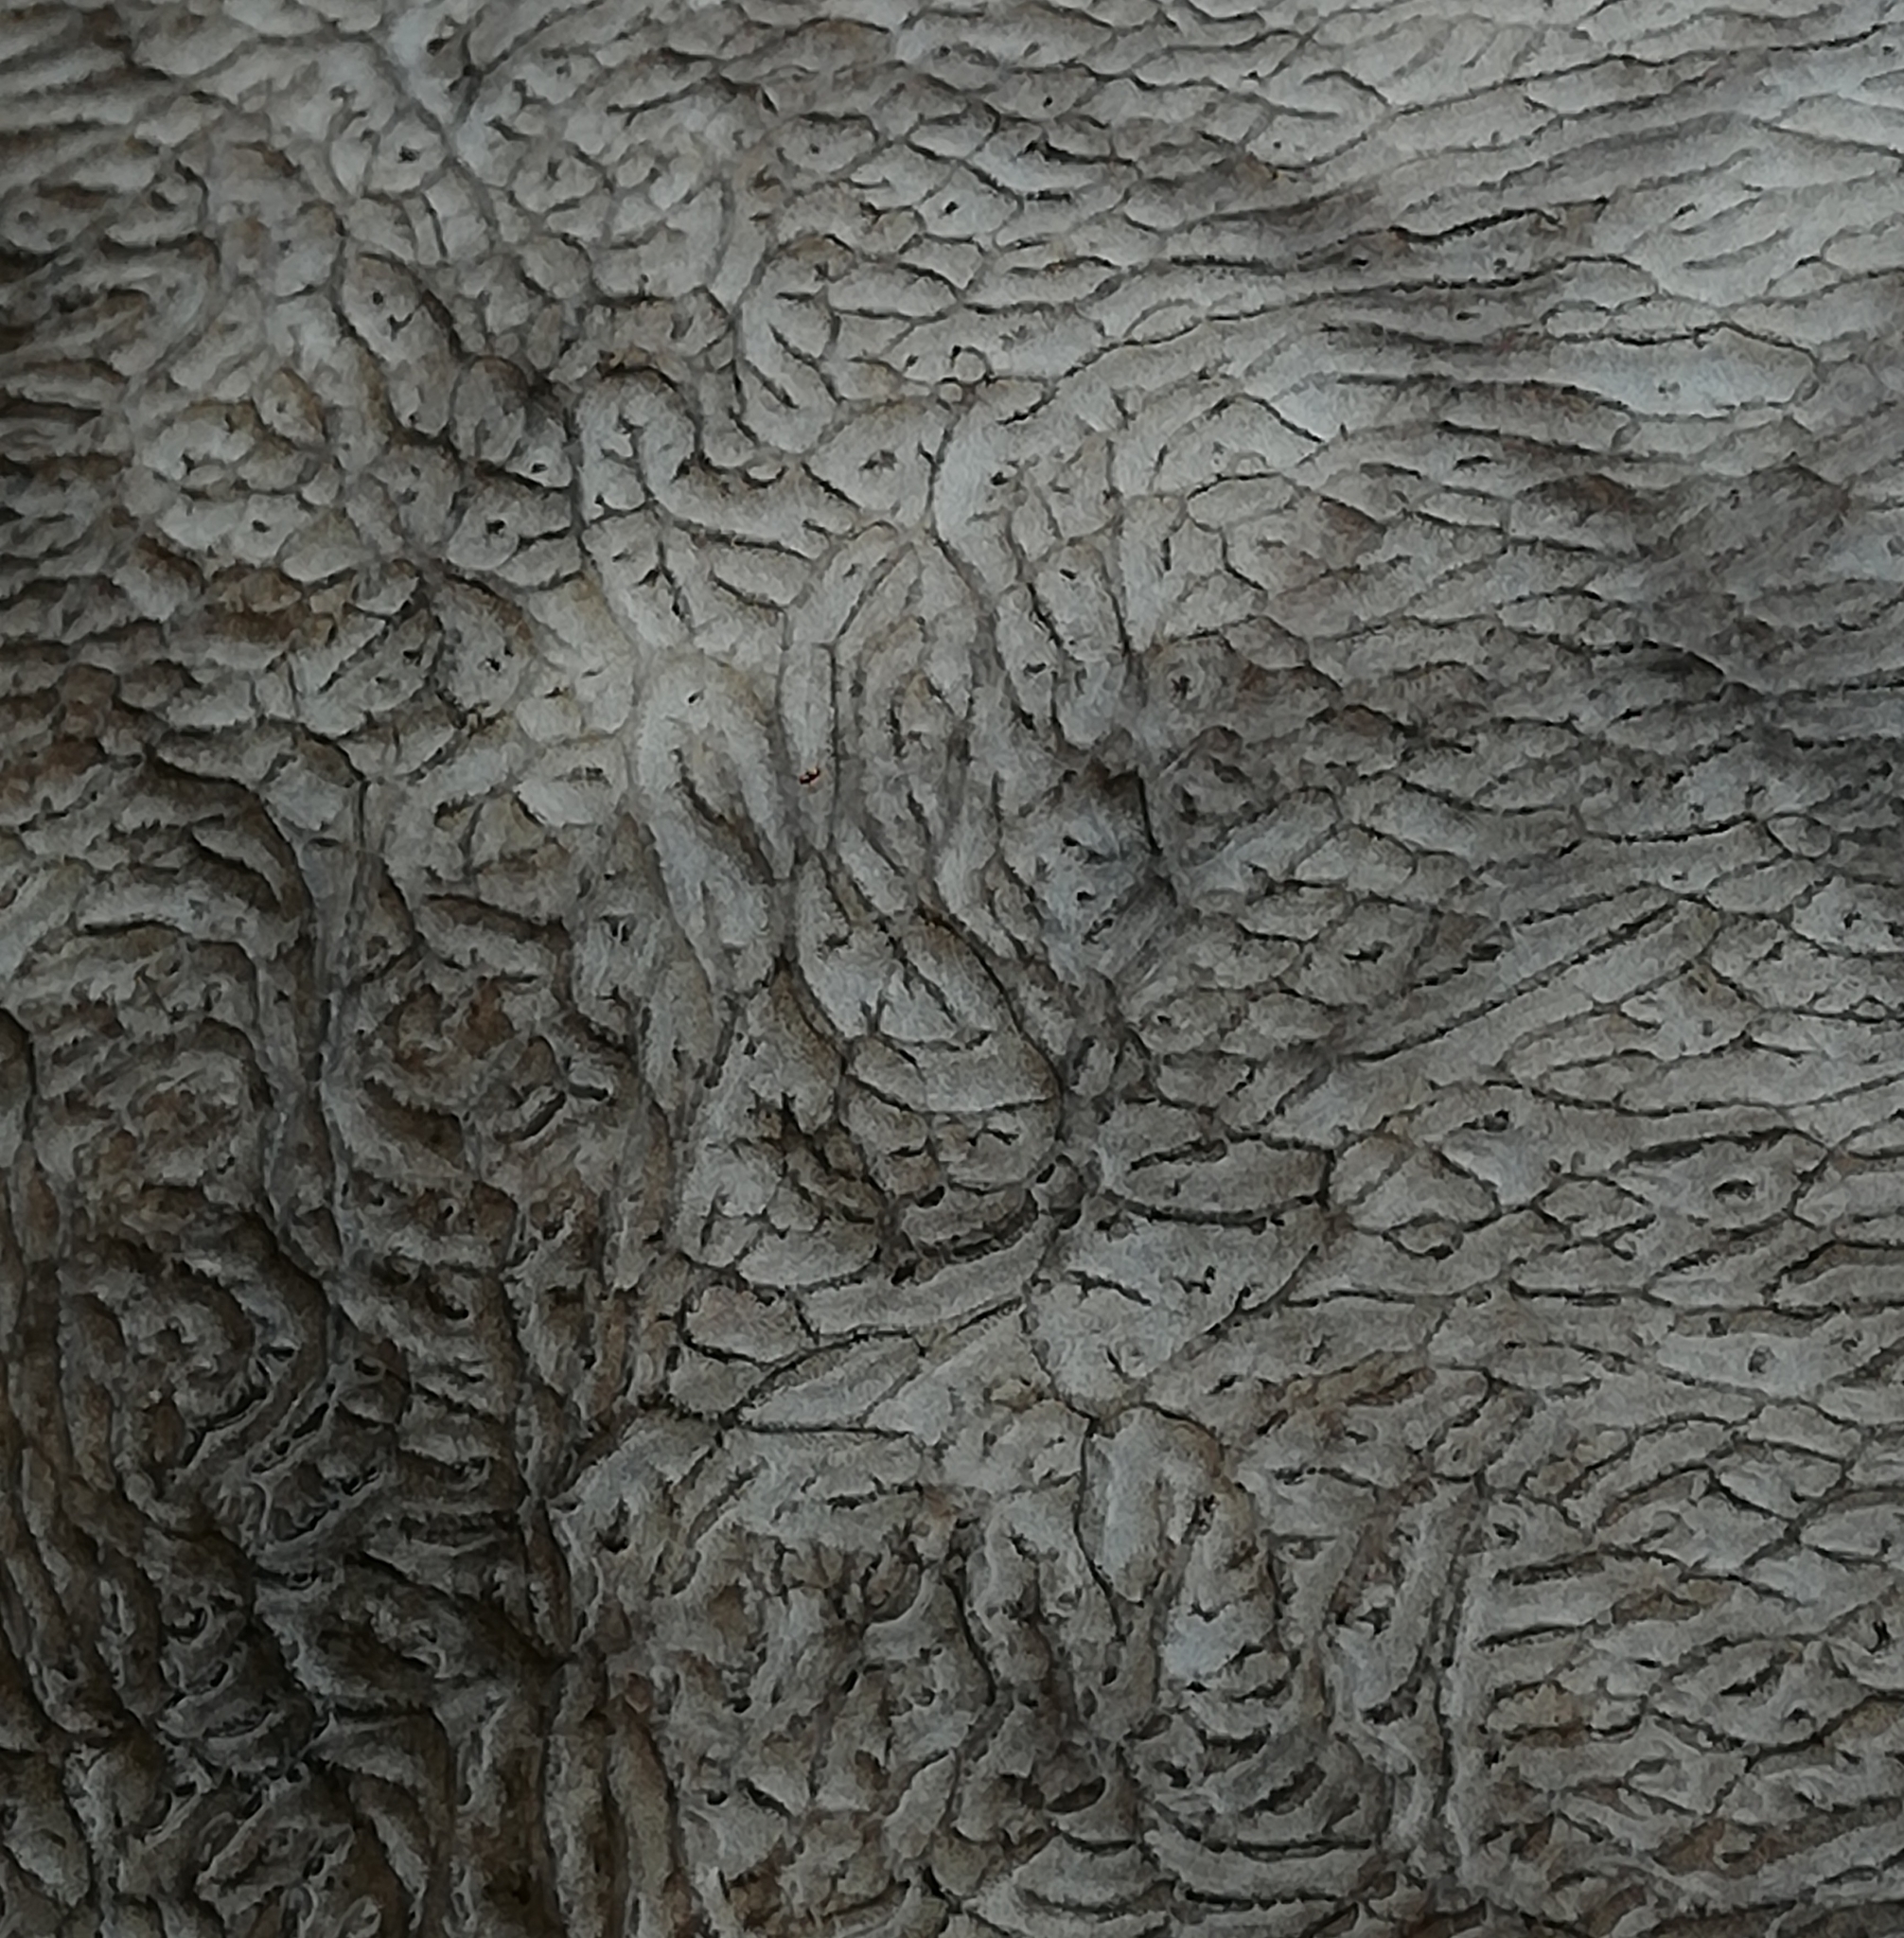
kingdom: Animalia
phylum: Chordata
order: Cypriniformes
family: Cyprinidae
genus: Cyprinus
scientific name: Cyprinus carpio
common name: Common carp
